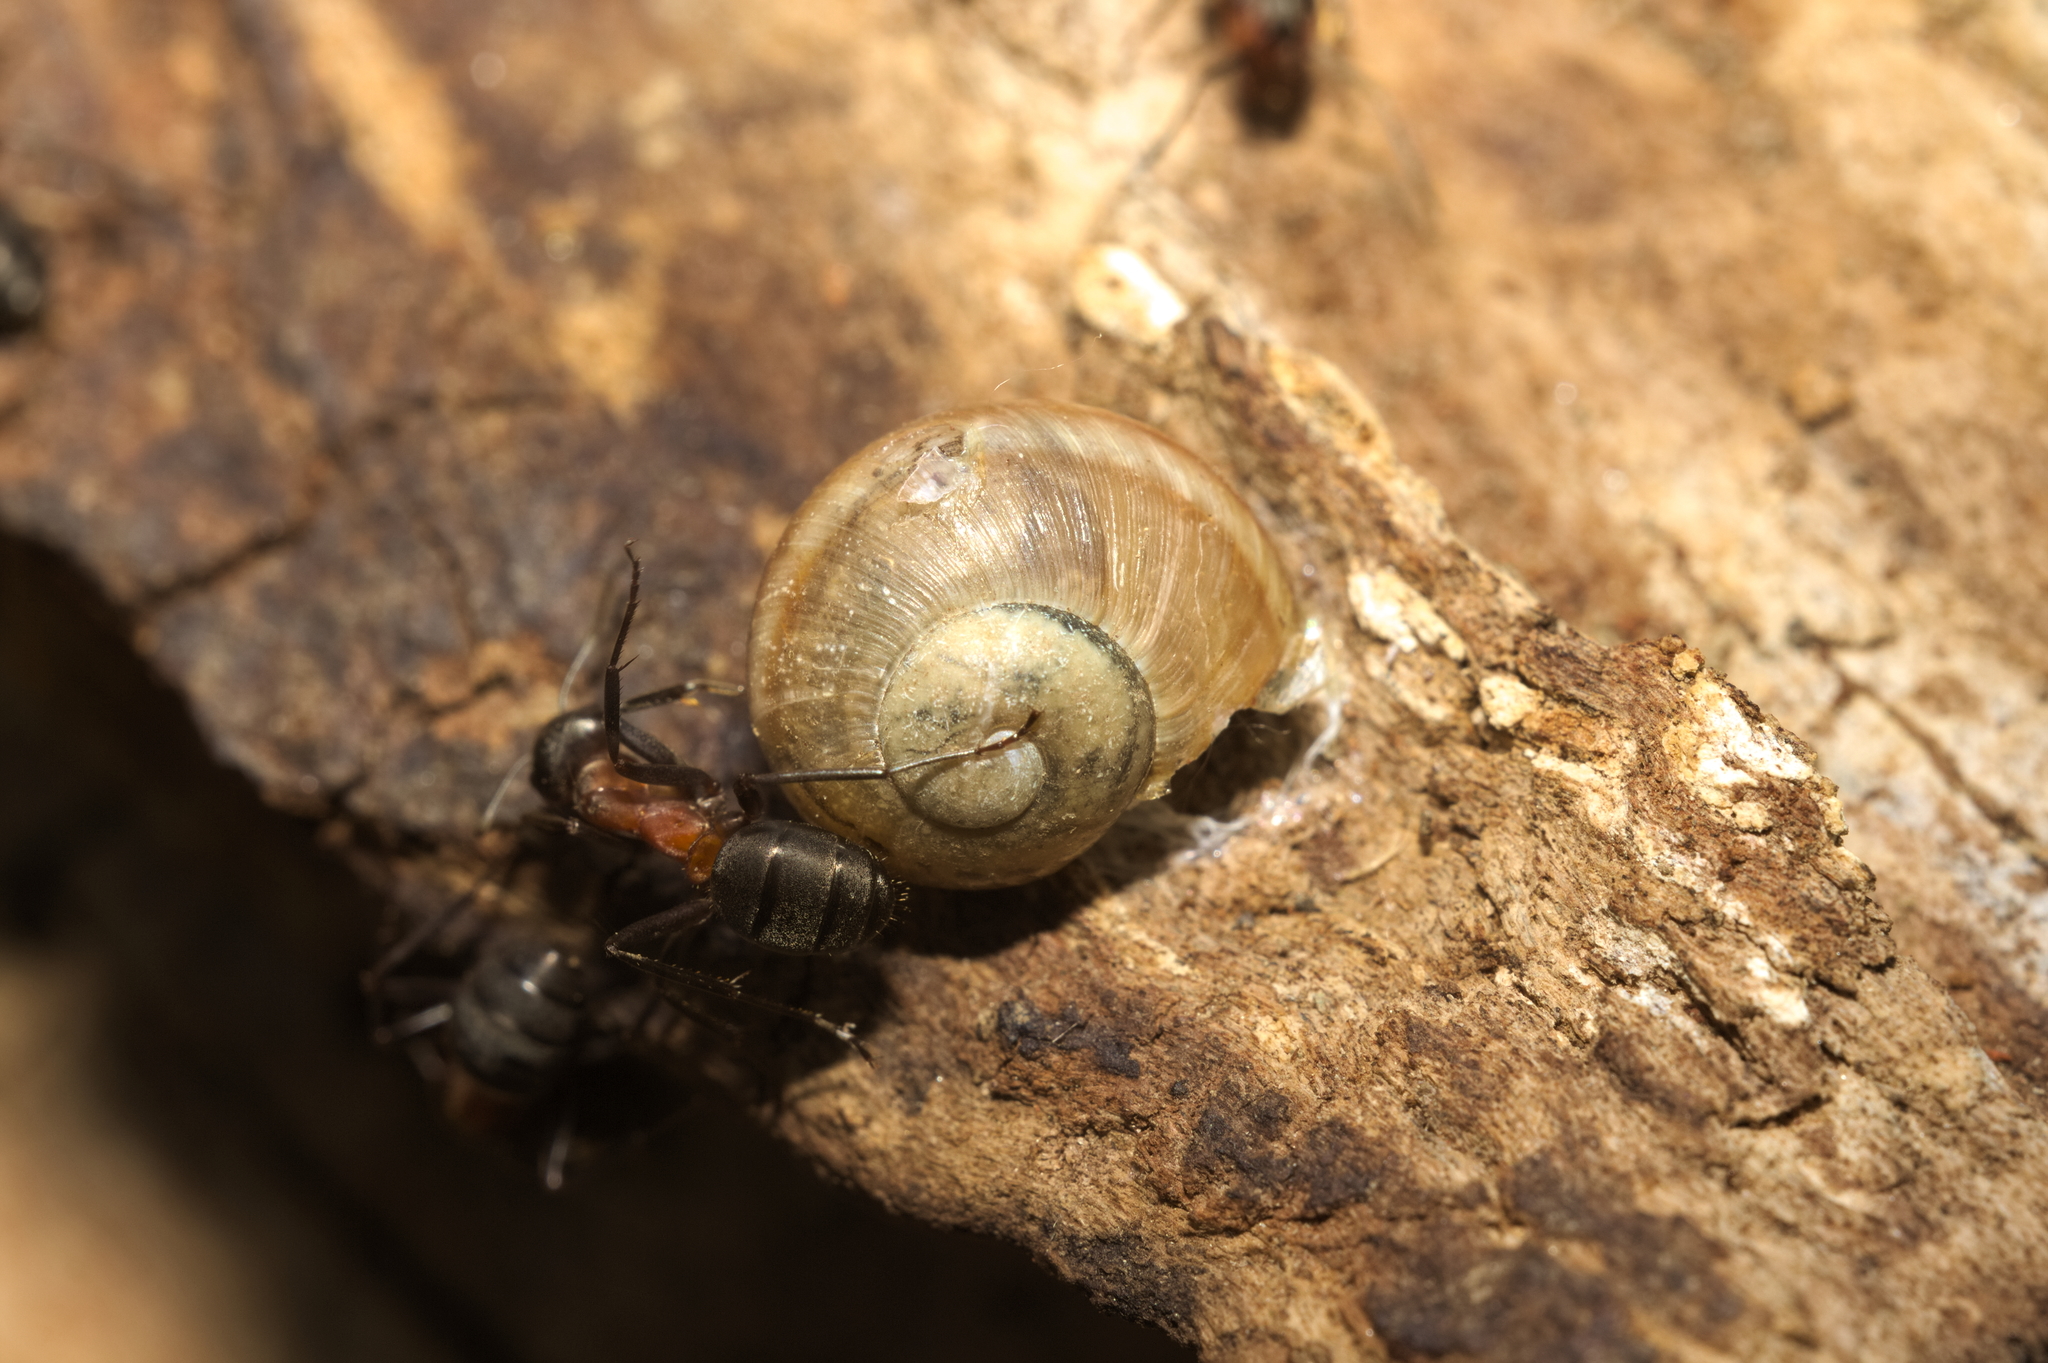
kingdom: Animalia
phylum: Mollusca
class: Gastropoda
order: Stylommatophora
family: Helicidae
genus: Helix
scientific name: Helix pomatia
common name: Roman snail
